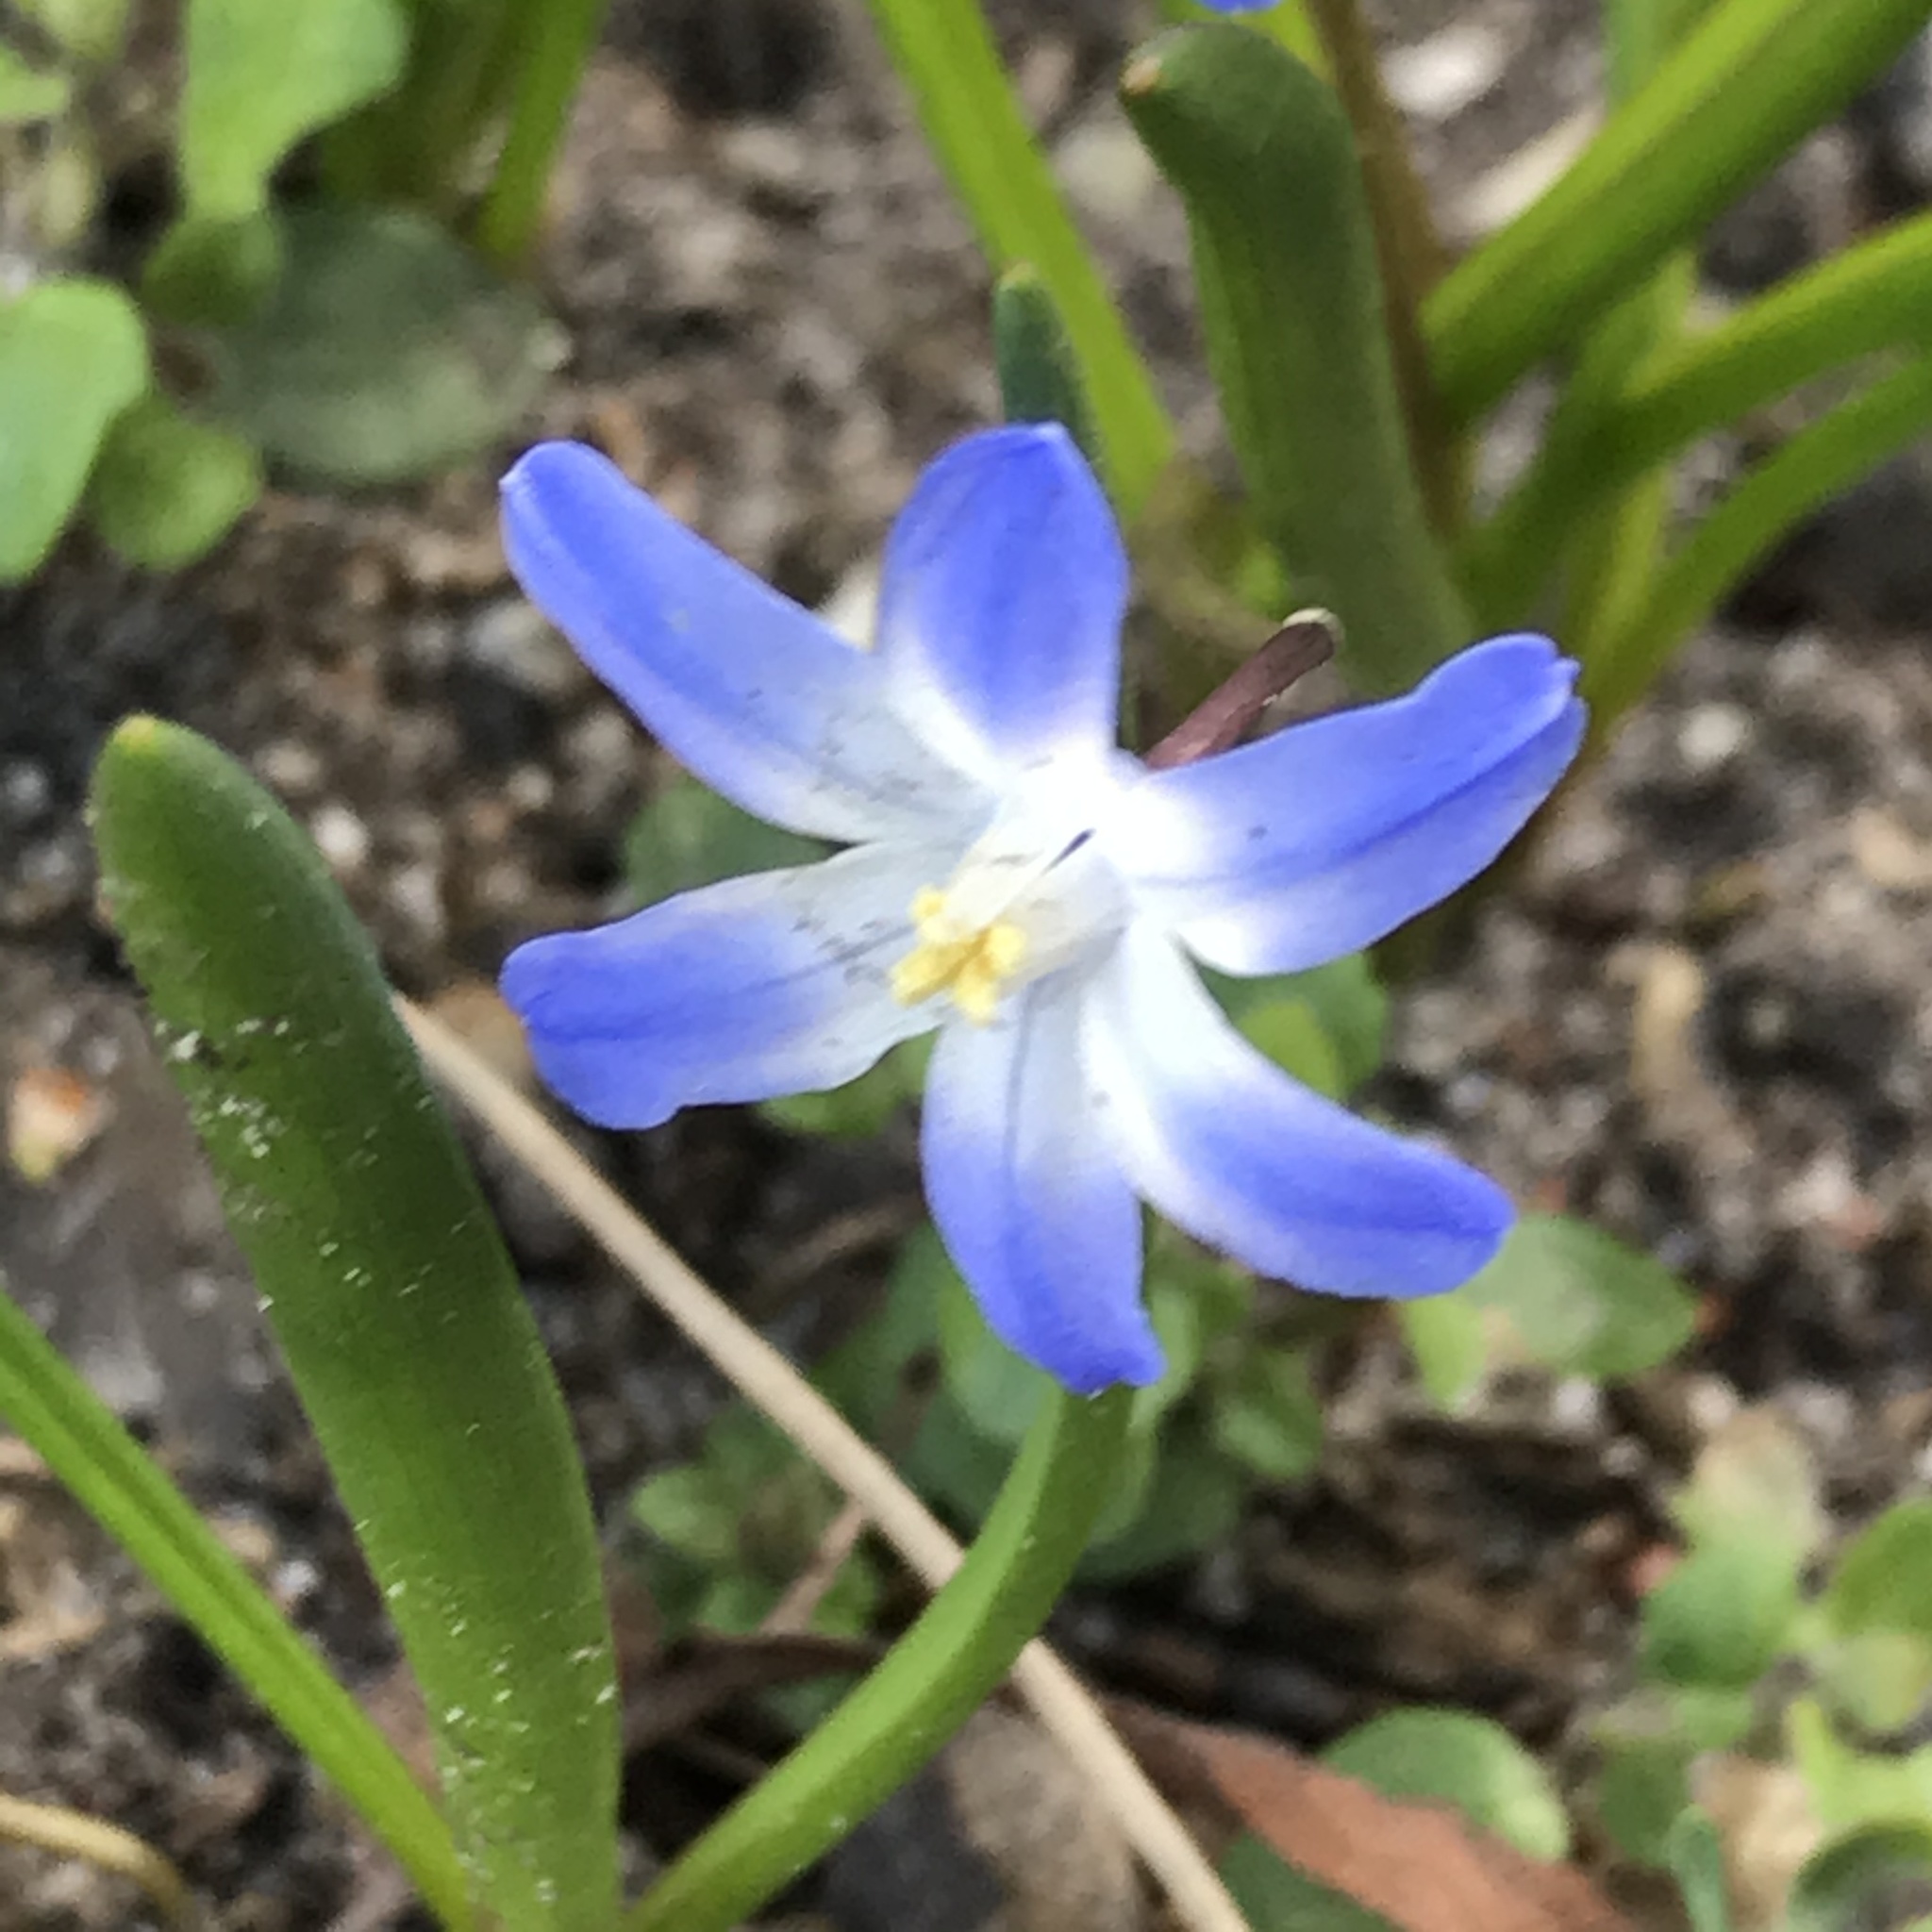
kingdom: Plantae
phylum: Tracheophyta
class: Liliopsida
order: Asparagales
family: Asparagaceae
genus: Scilla
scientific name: Scilla forbesii
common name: Glory-of-the-snow
